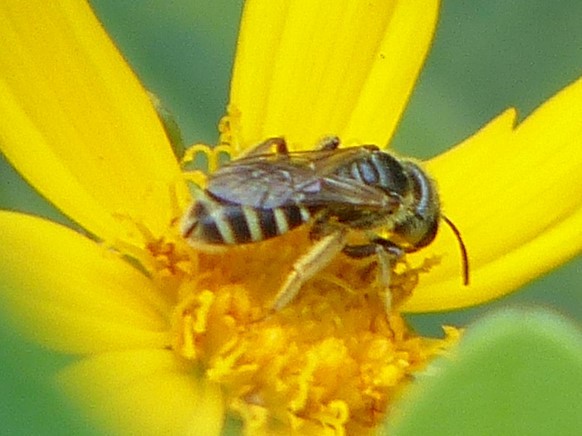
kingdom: Animalia
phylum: Arthropoda
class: Insecta
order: Hymenoptera
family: Halictidae
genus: Halictus
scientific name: Halictus ligatus
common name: Ligated furrow bee
